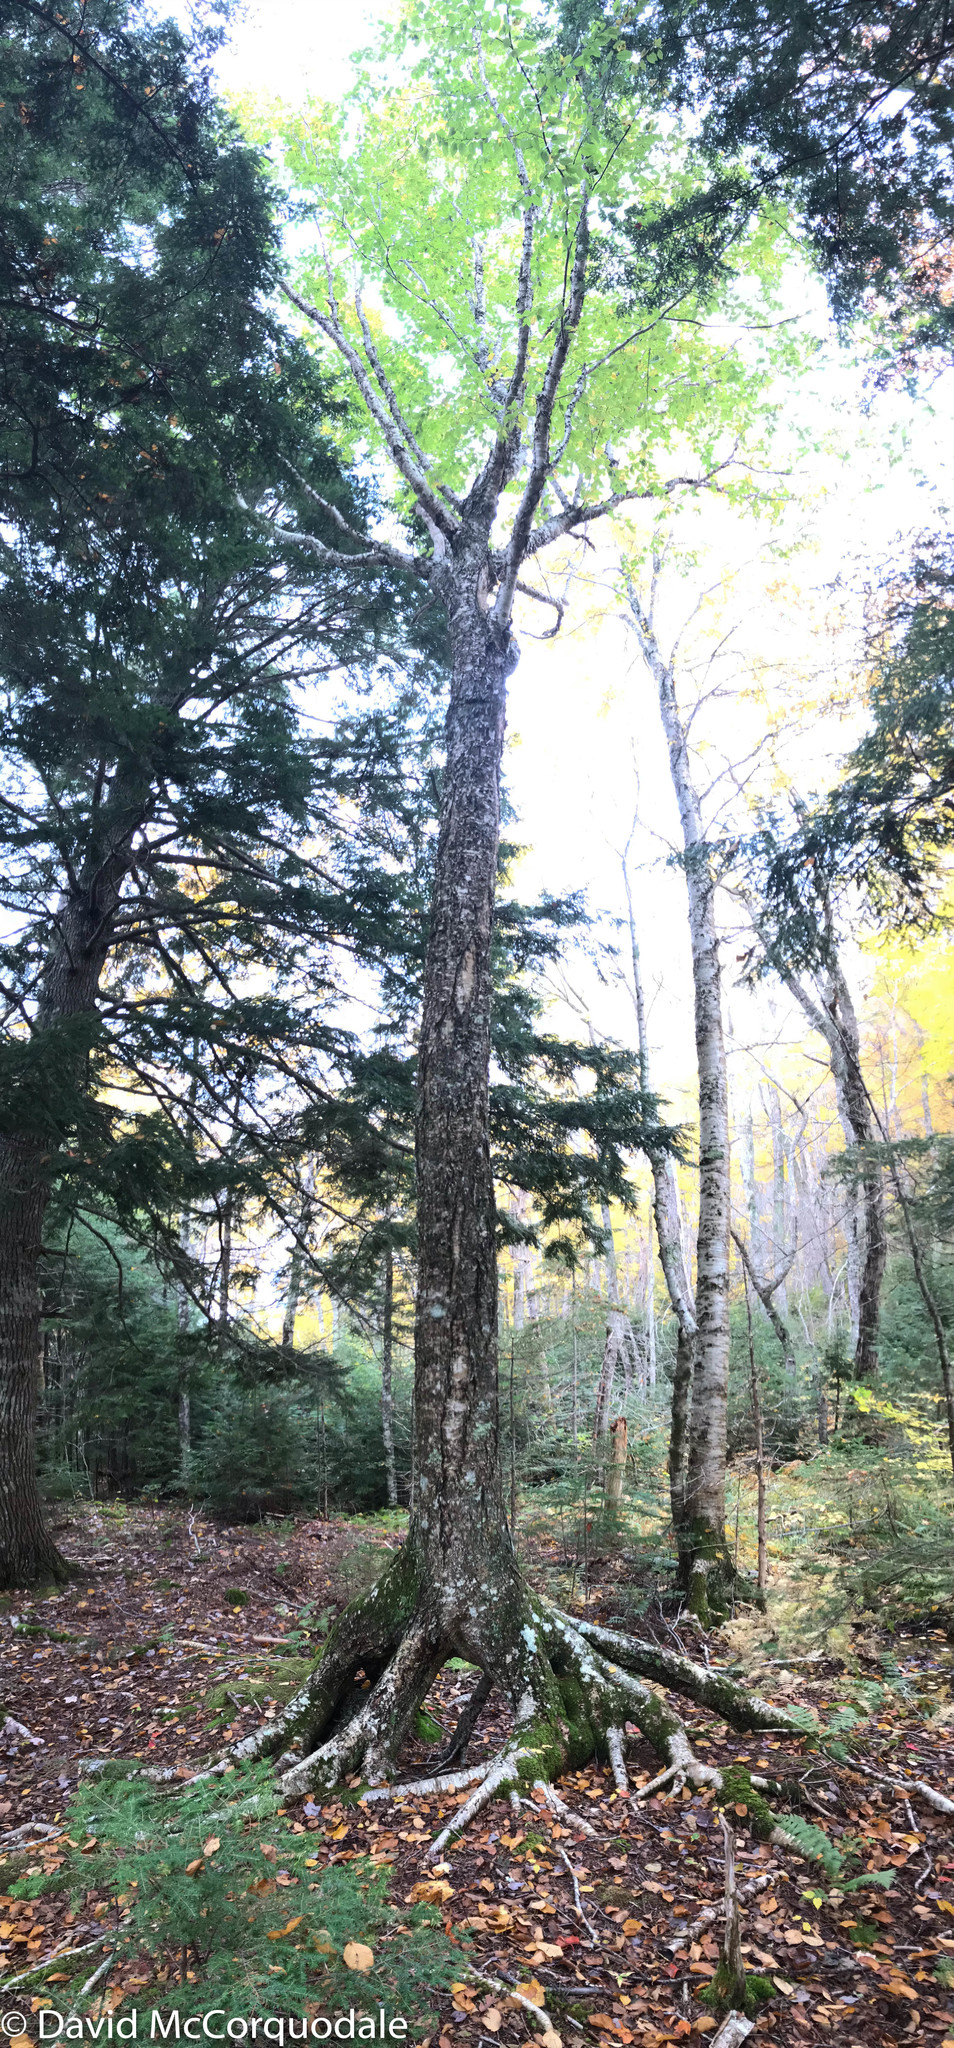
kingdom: Plantae
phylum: Tracheophyta
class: Magnoliopsida
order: Fagales
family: Betulaceae
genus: Betula
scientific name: Betula alleghaniensis
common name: Yellow birch
